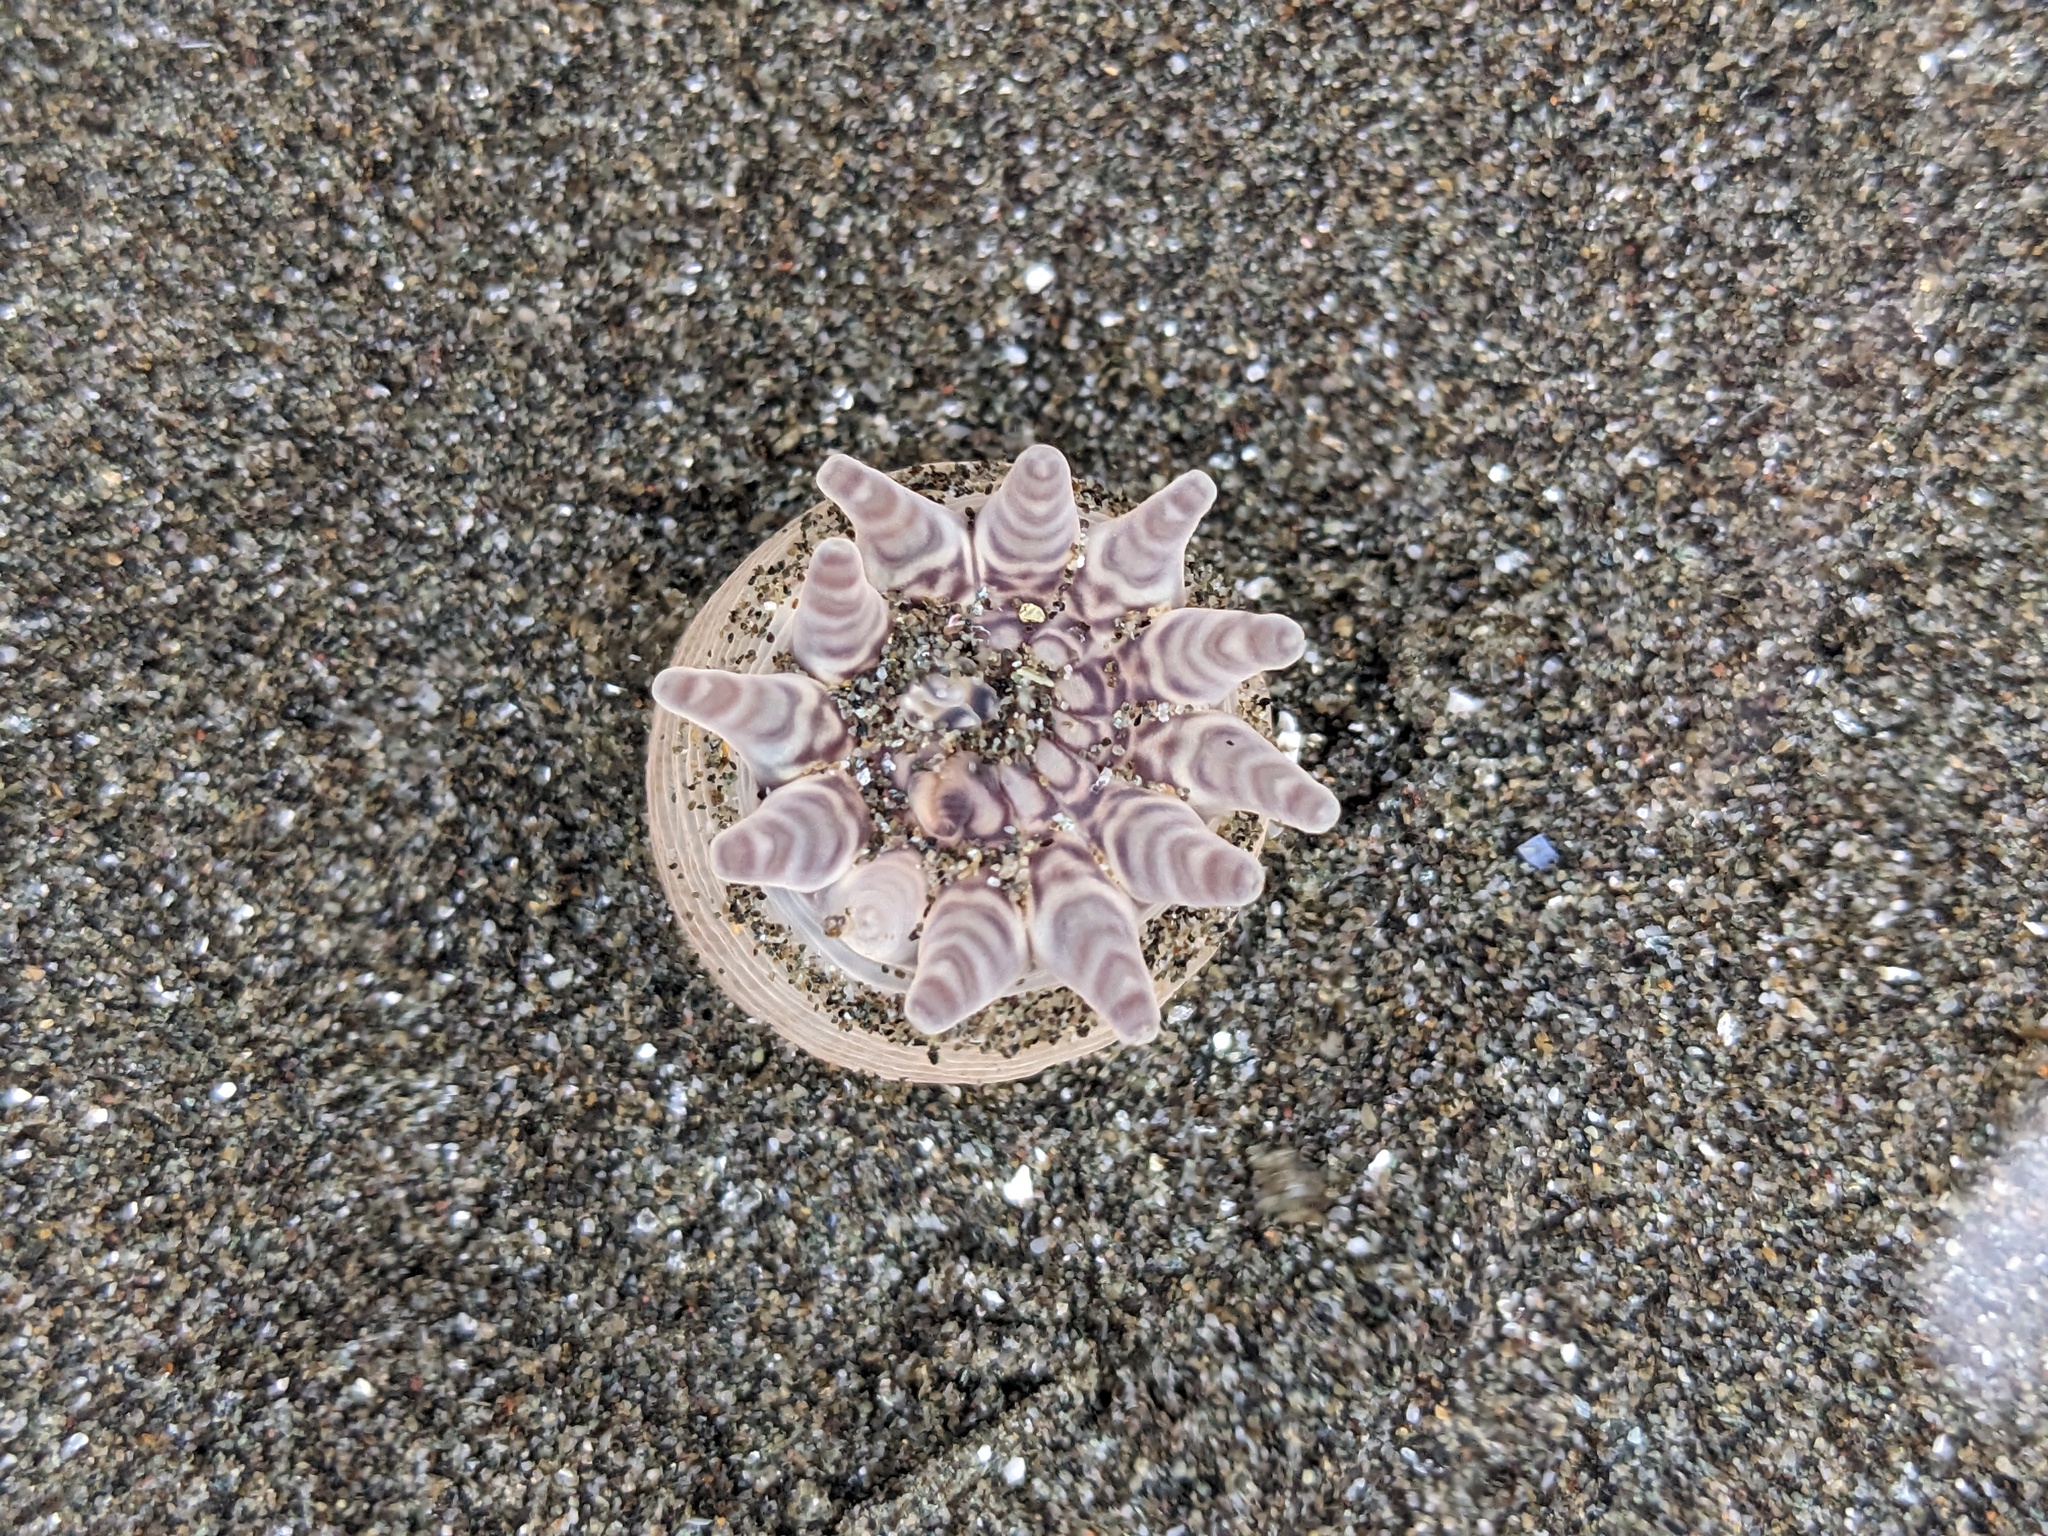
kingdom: Animalia
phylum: Cnidaria
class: Anthozoa
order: Actiniaria
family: Peachiidae
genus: Peachia
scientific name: Peachia quinquecapitata
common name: Twelve-tentacled parasitic anemone
